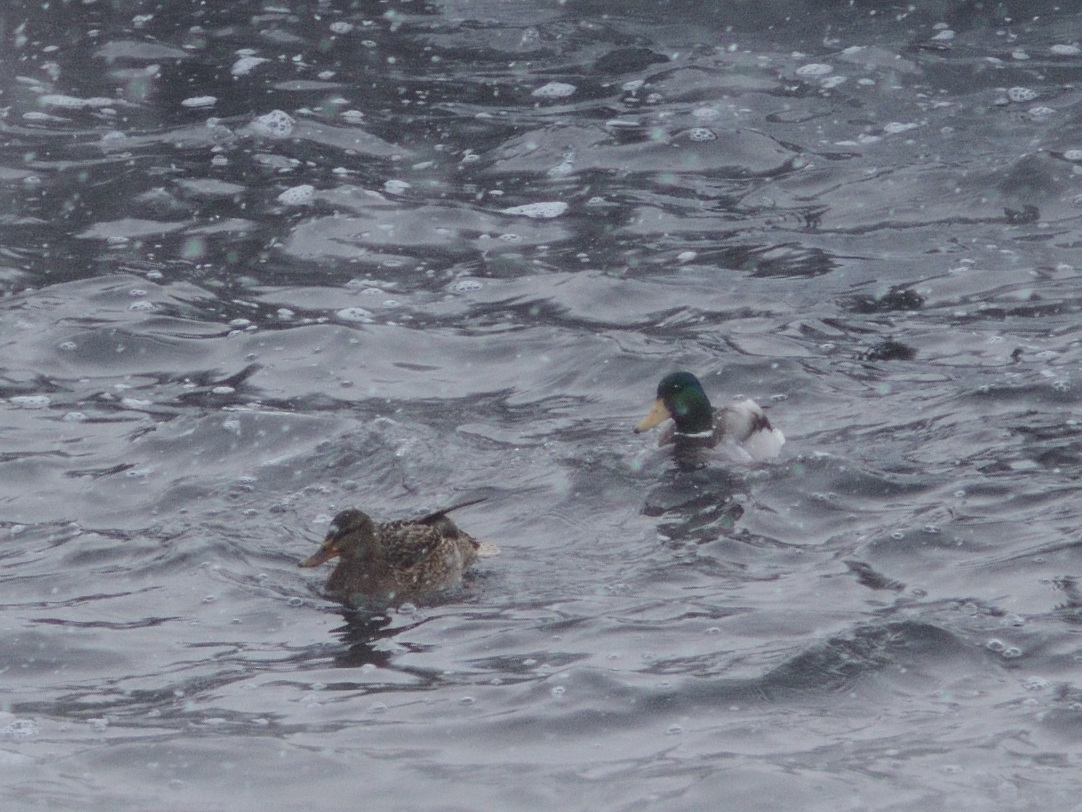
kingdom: Animalia
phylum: Chordata
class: Aves
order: Anseriformes
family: Anatidae
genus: Anas
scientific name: Anas platyrhynchos
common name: Mallard
